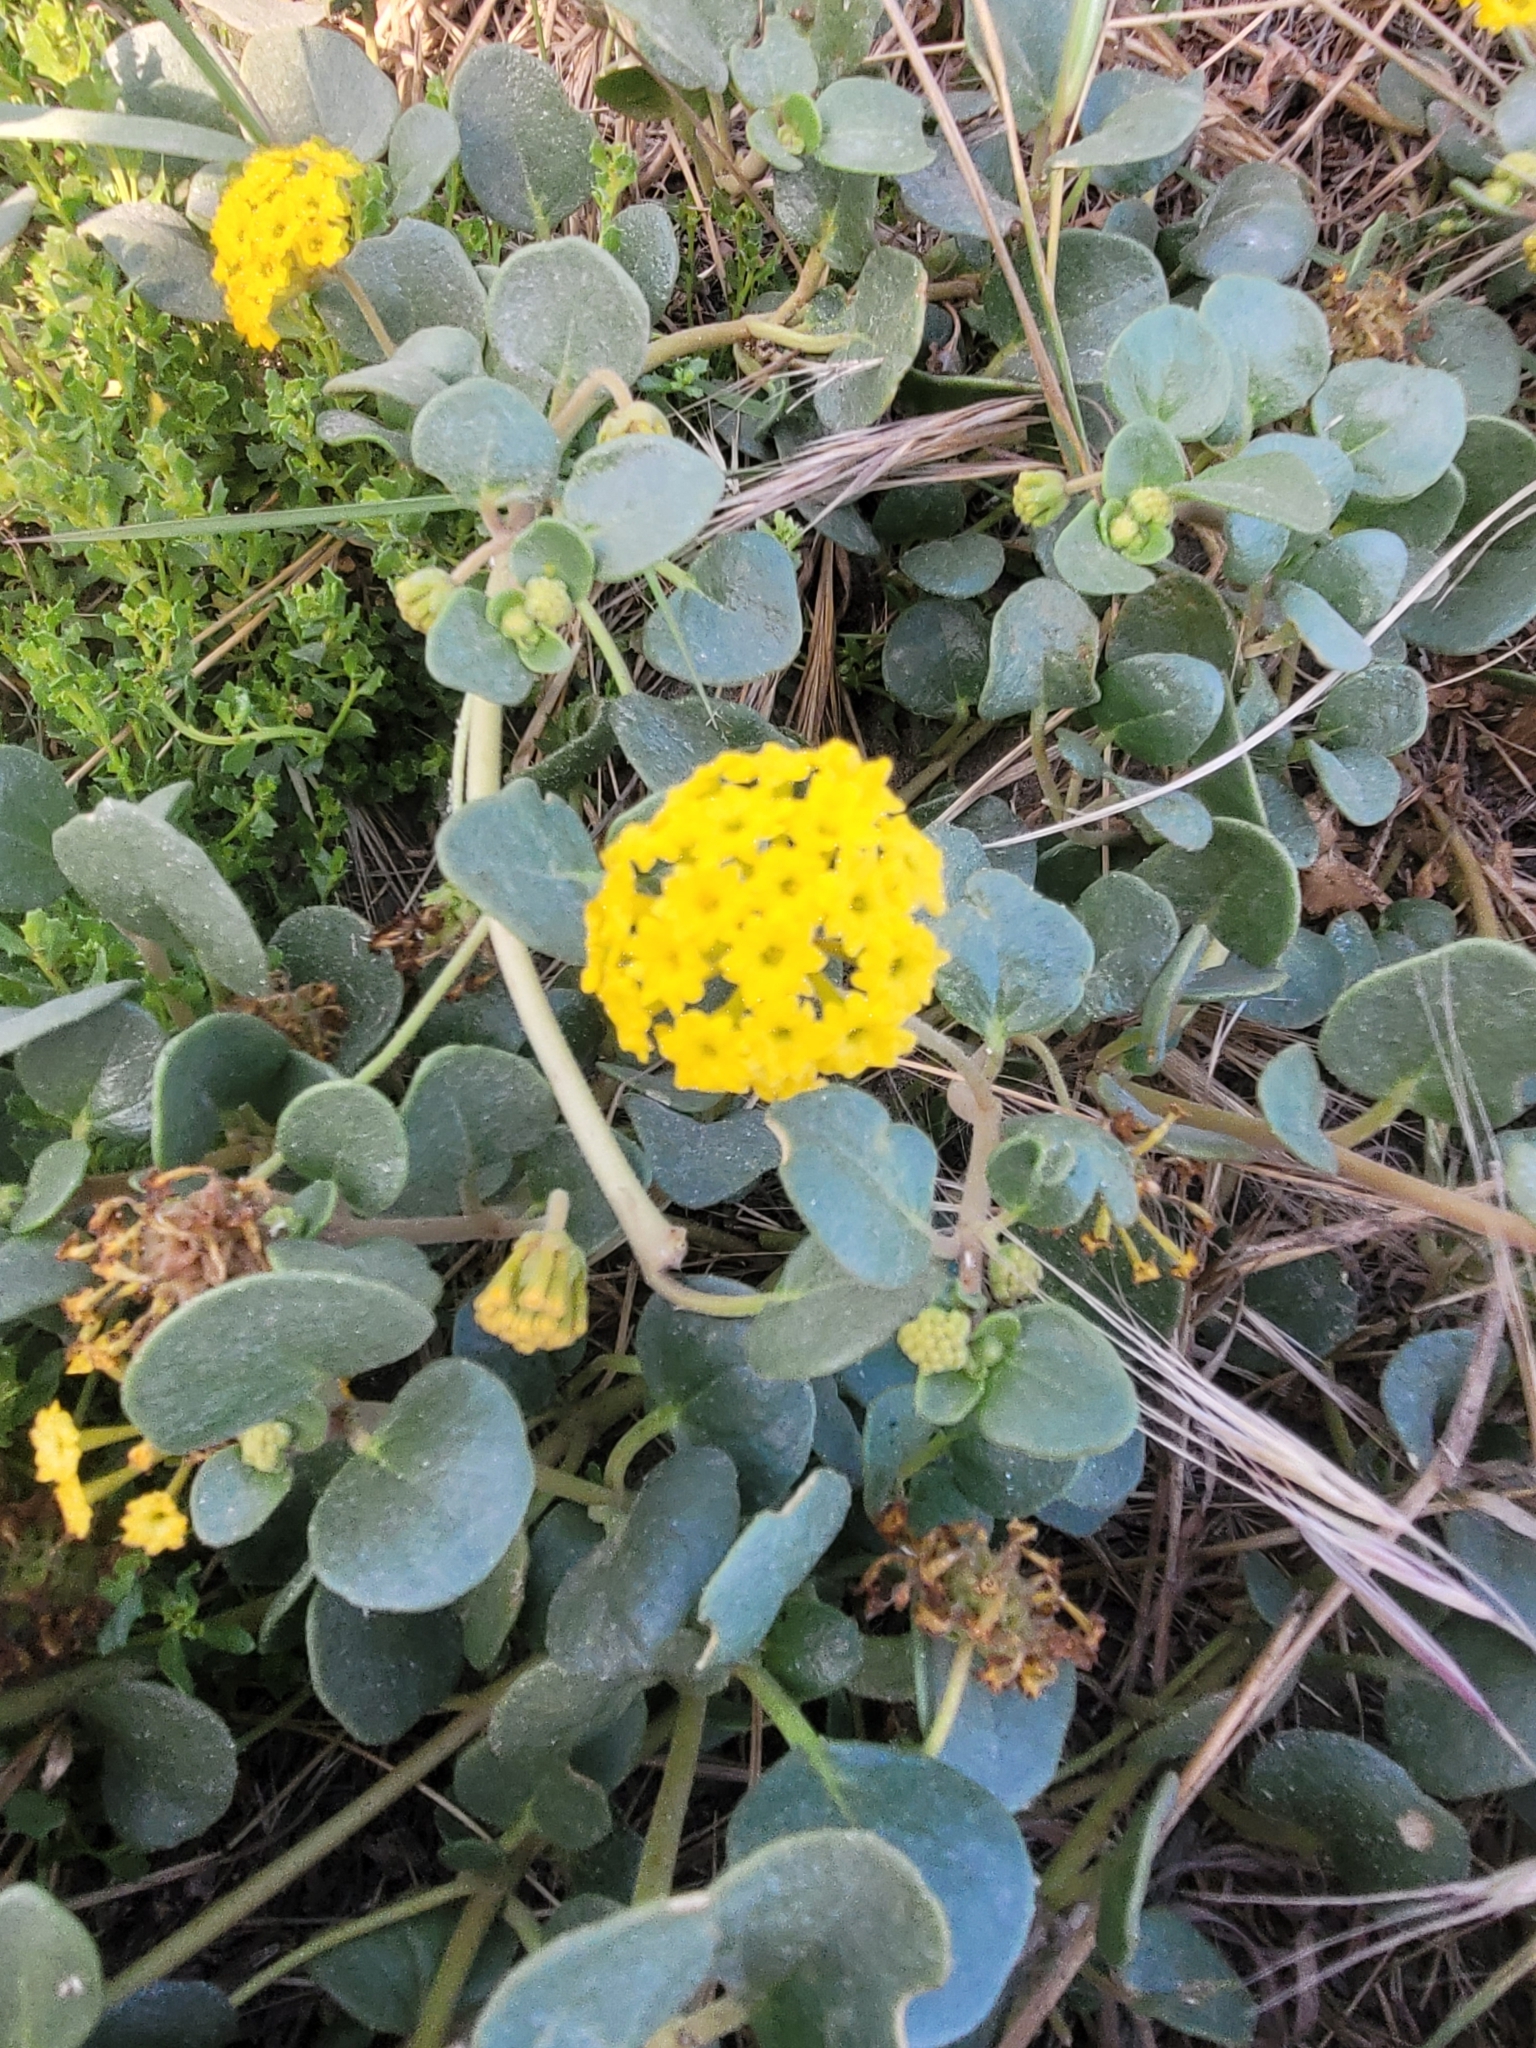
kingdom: Plantae
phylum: Tracheophyta
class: Magnoliopsida
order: Caryophyllales
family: Nyctaginaceae
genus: Abronia
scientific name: Abronia latifolia
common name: Yellow sand-verbena
